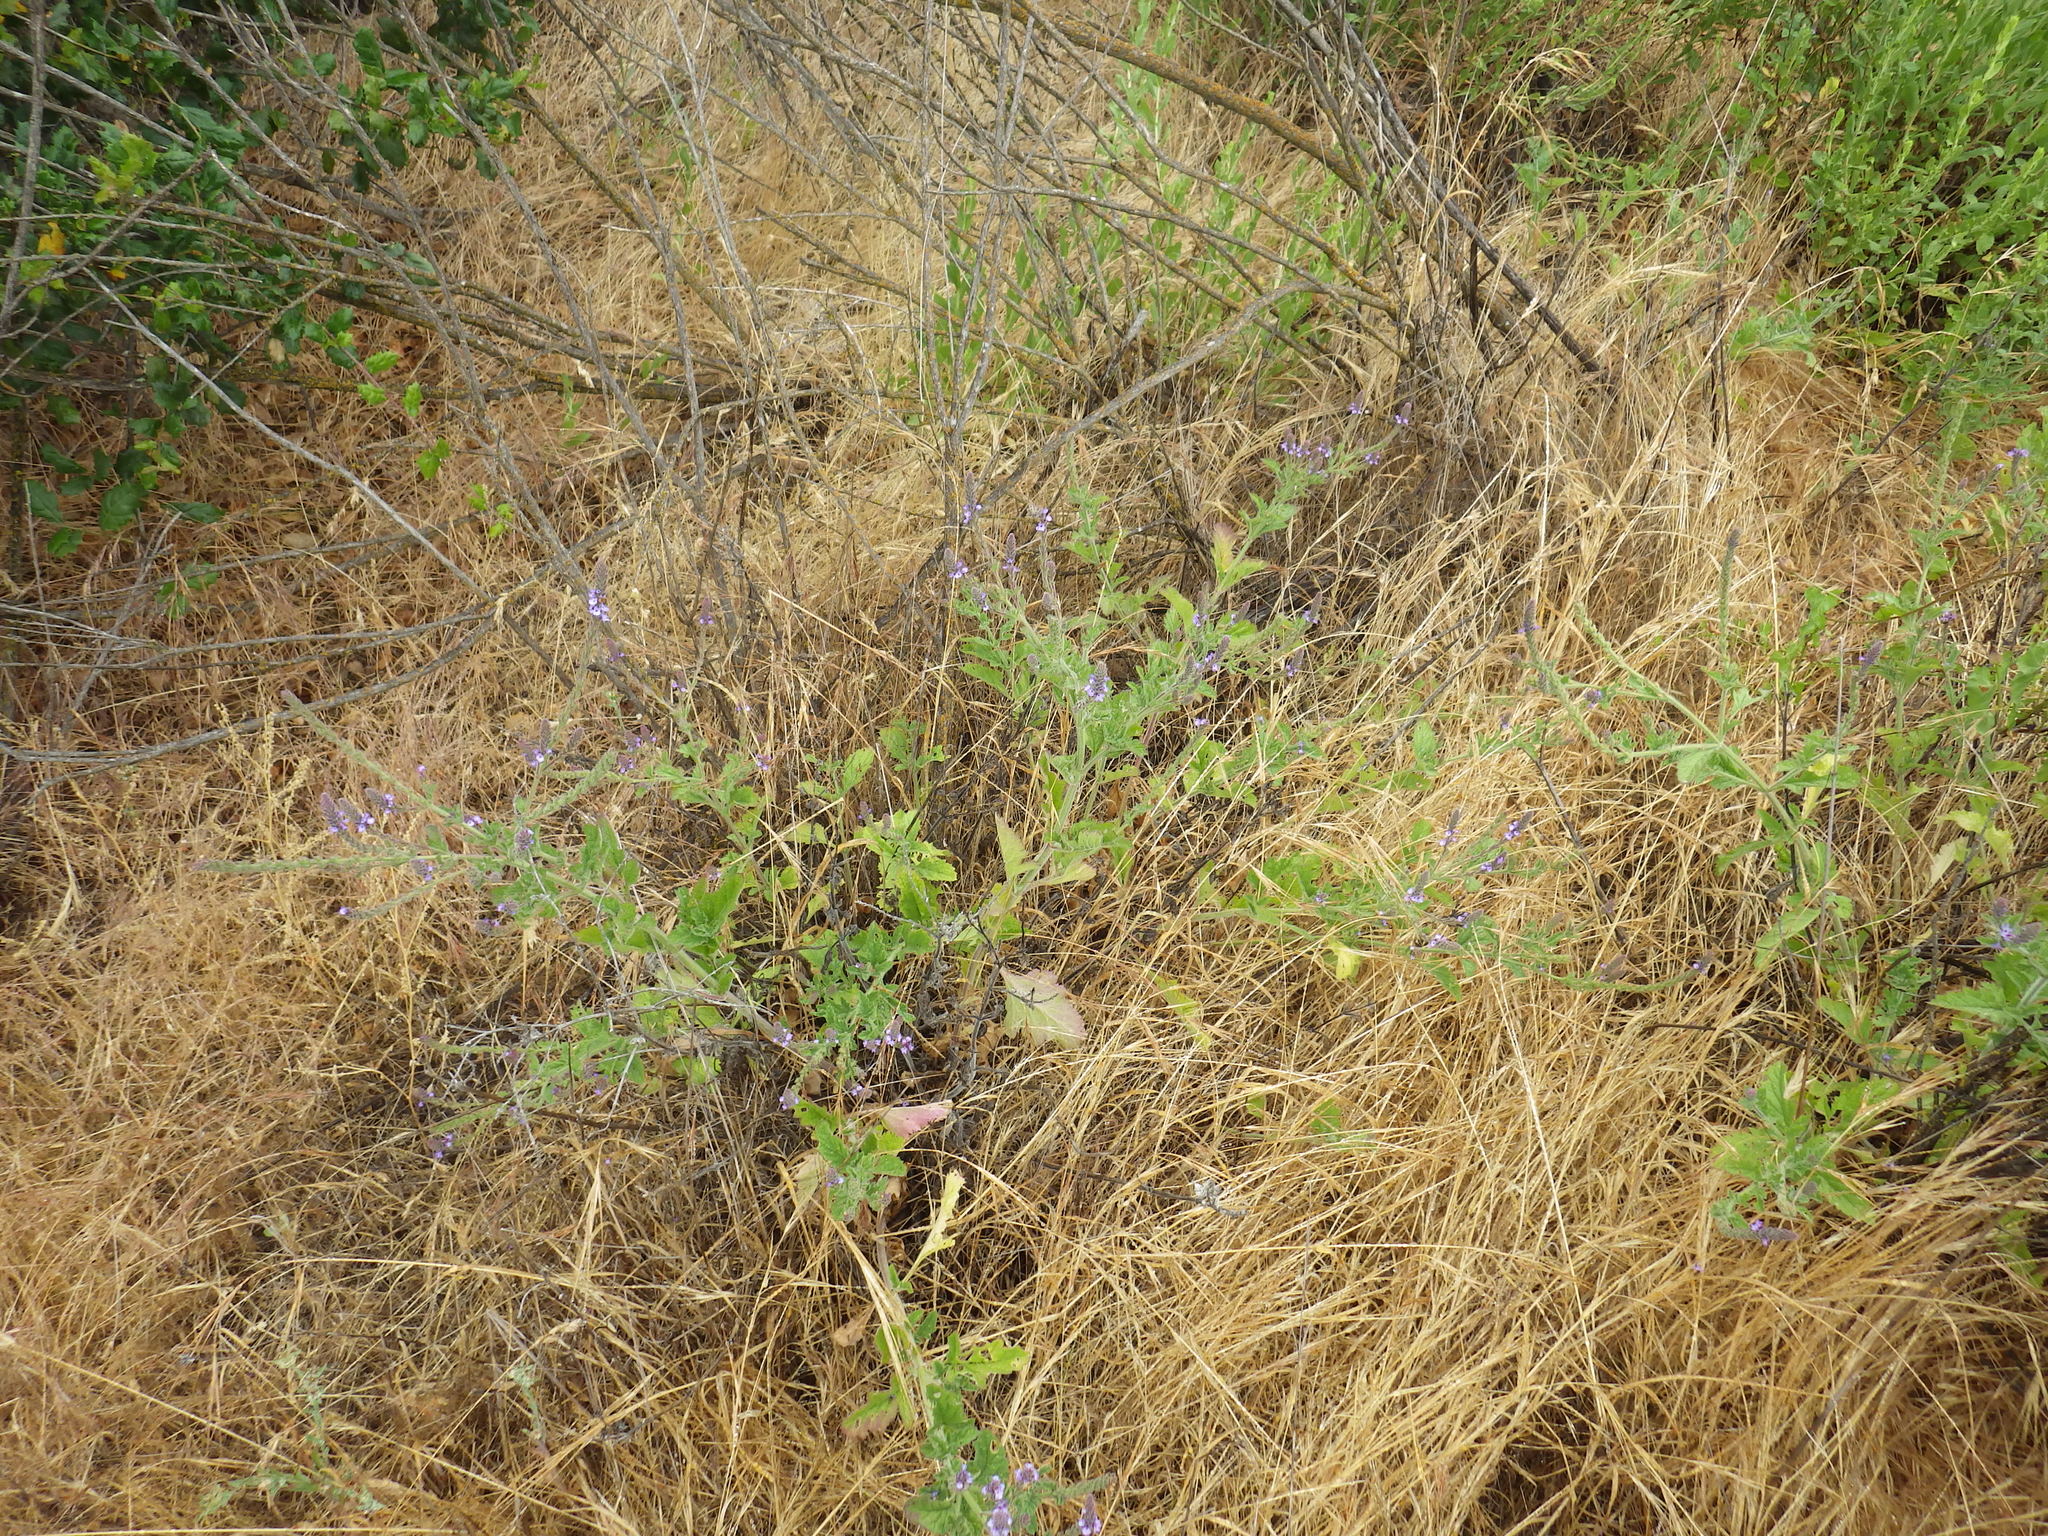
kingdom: Plantae
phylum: Tracheophyta
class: Magnoliopsida
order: Lamiales
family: Verbenaceae
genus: Verbena
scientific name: Verbena lasiostachys
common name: Vervain
